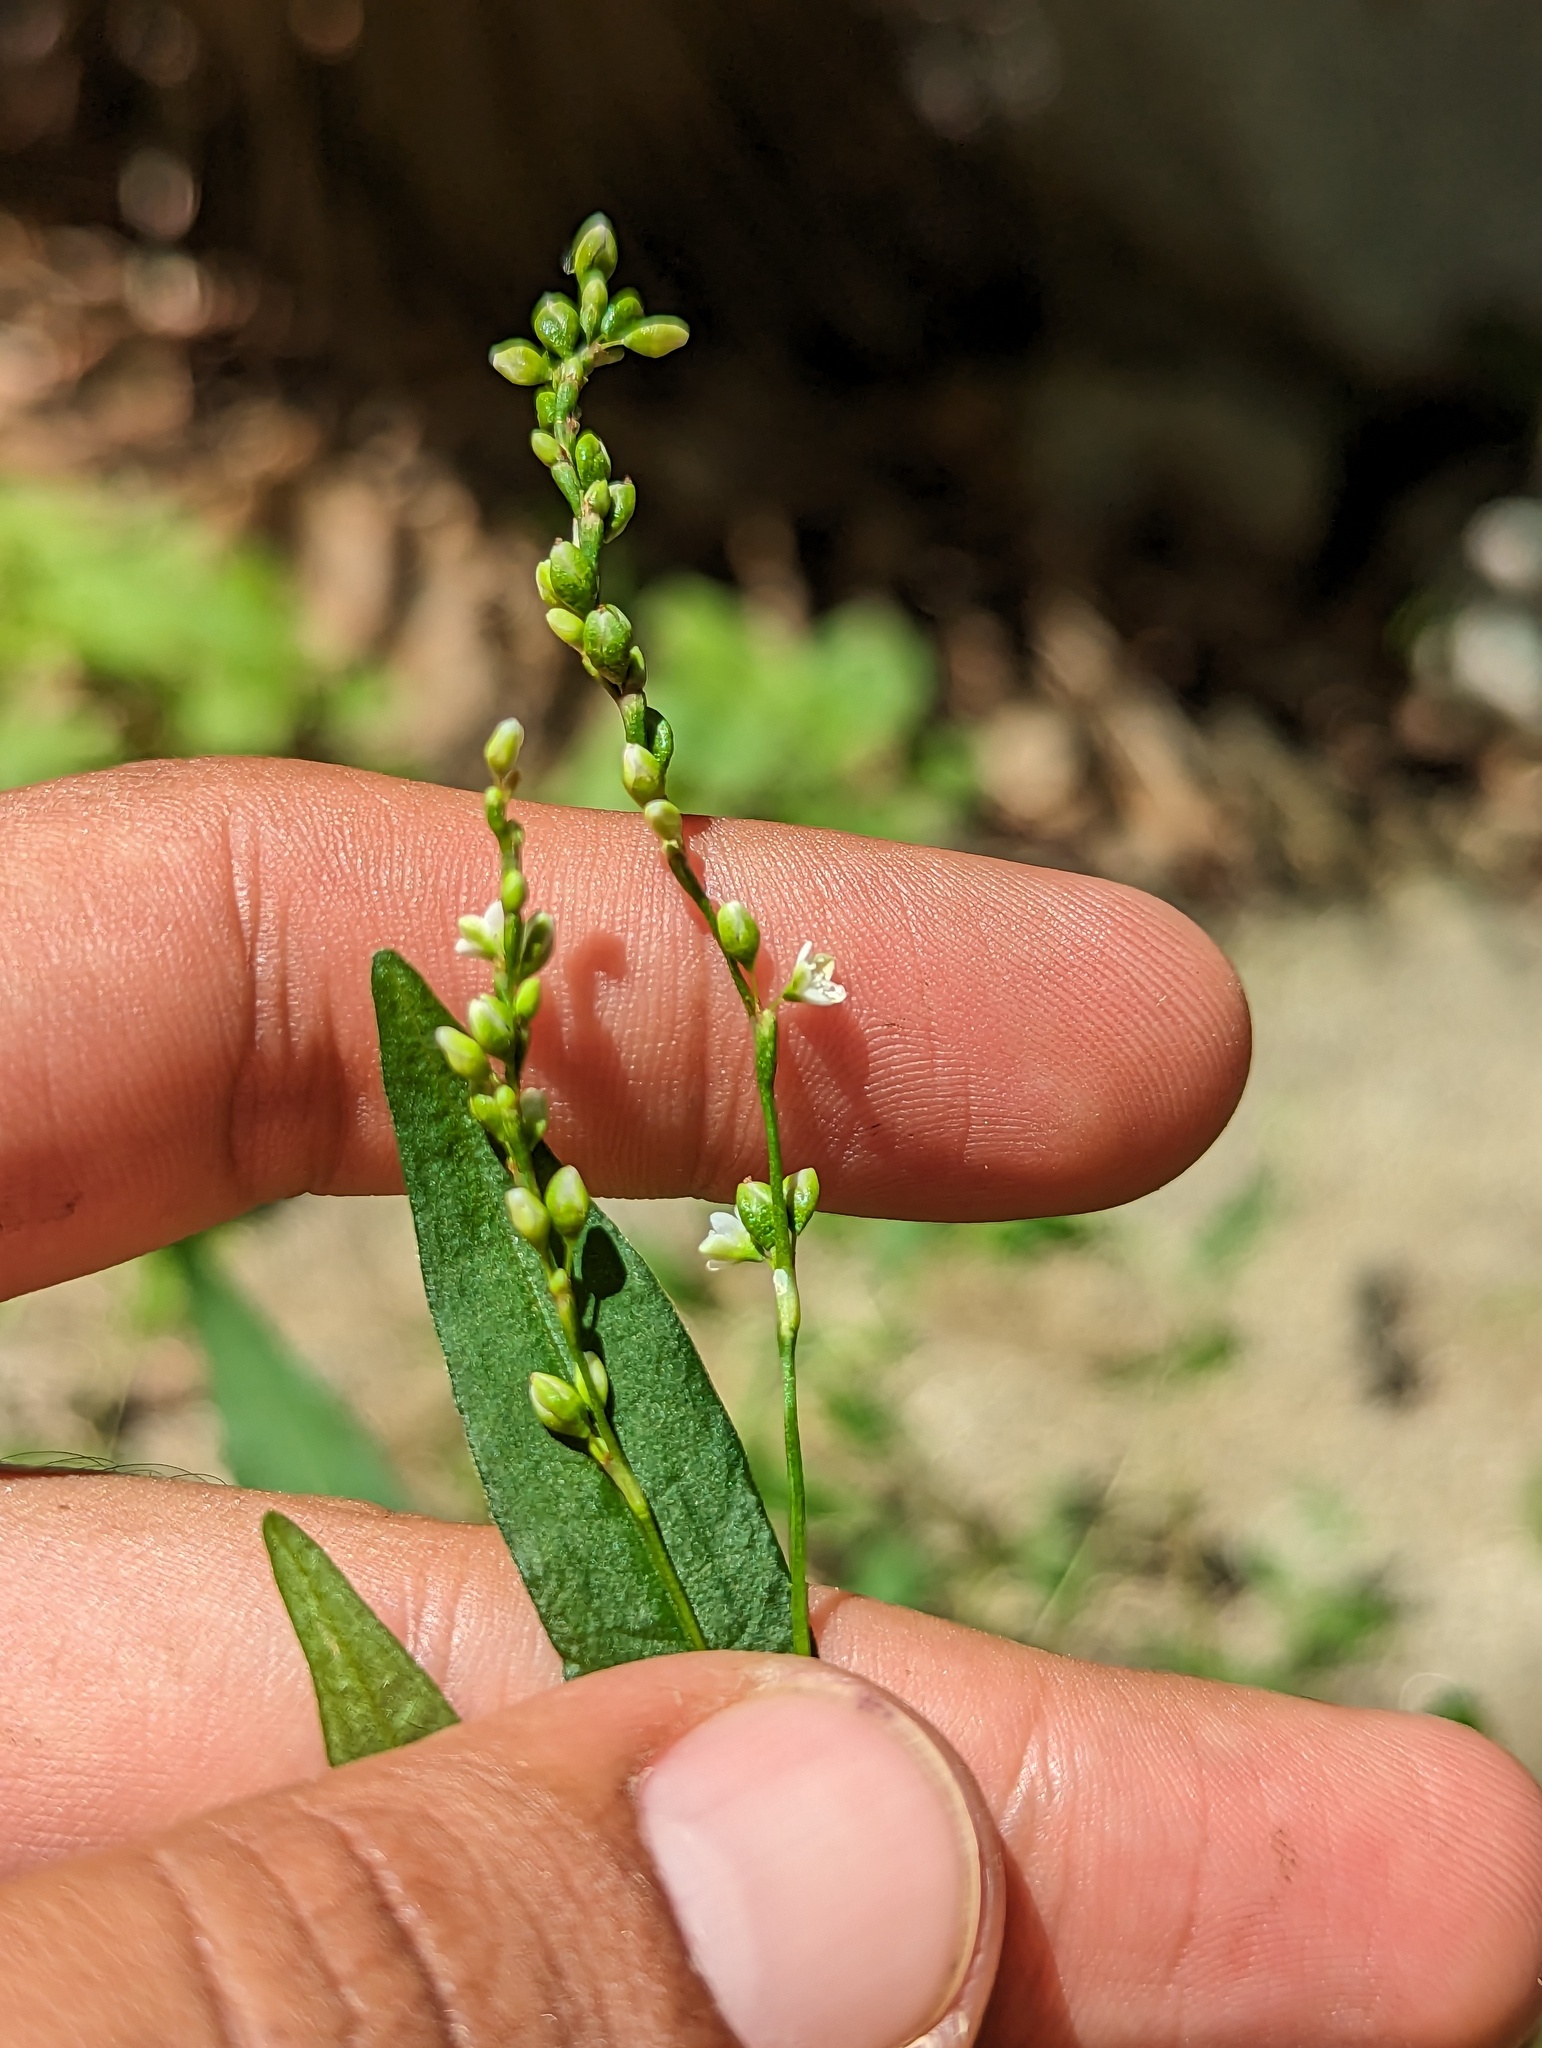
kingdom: Plantae
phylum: Tracheophyta
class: Magnoliopsida
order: Caryophyllales
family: Polygonaceae
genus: Persicaria
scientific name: Persicaria punctata
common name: Dotted smartweed
